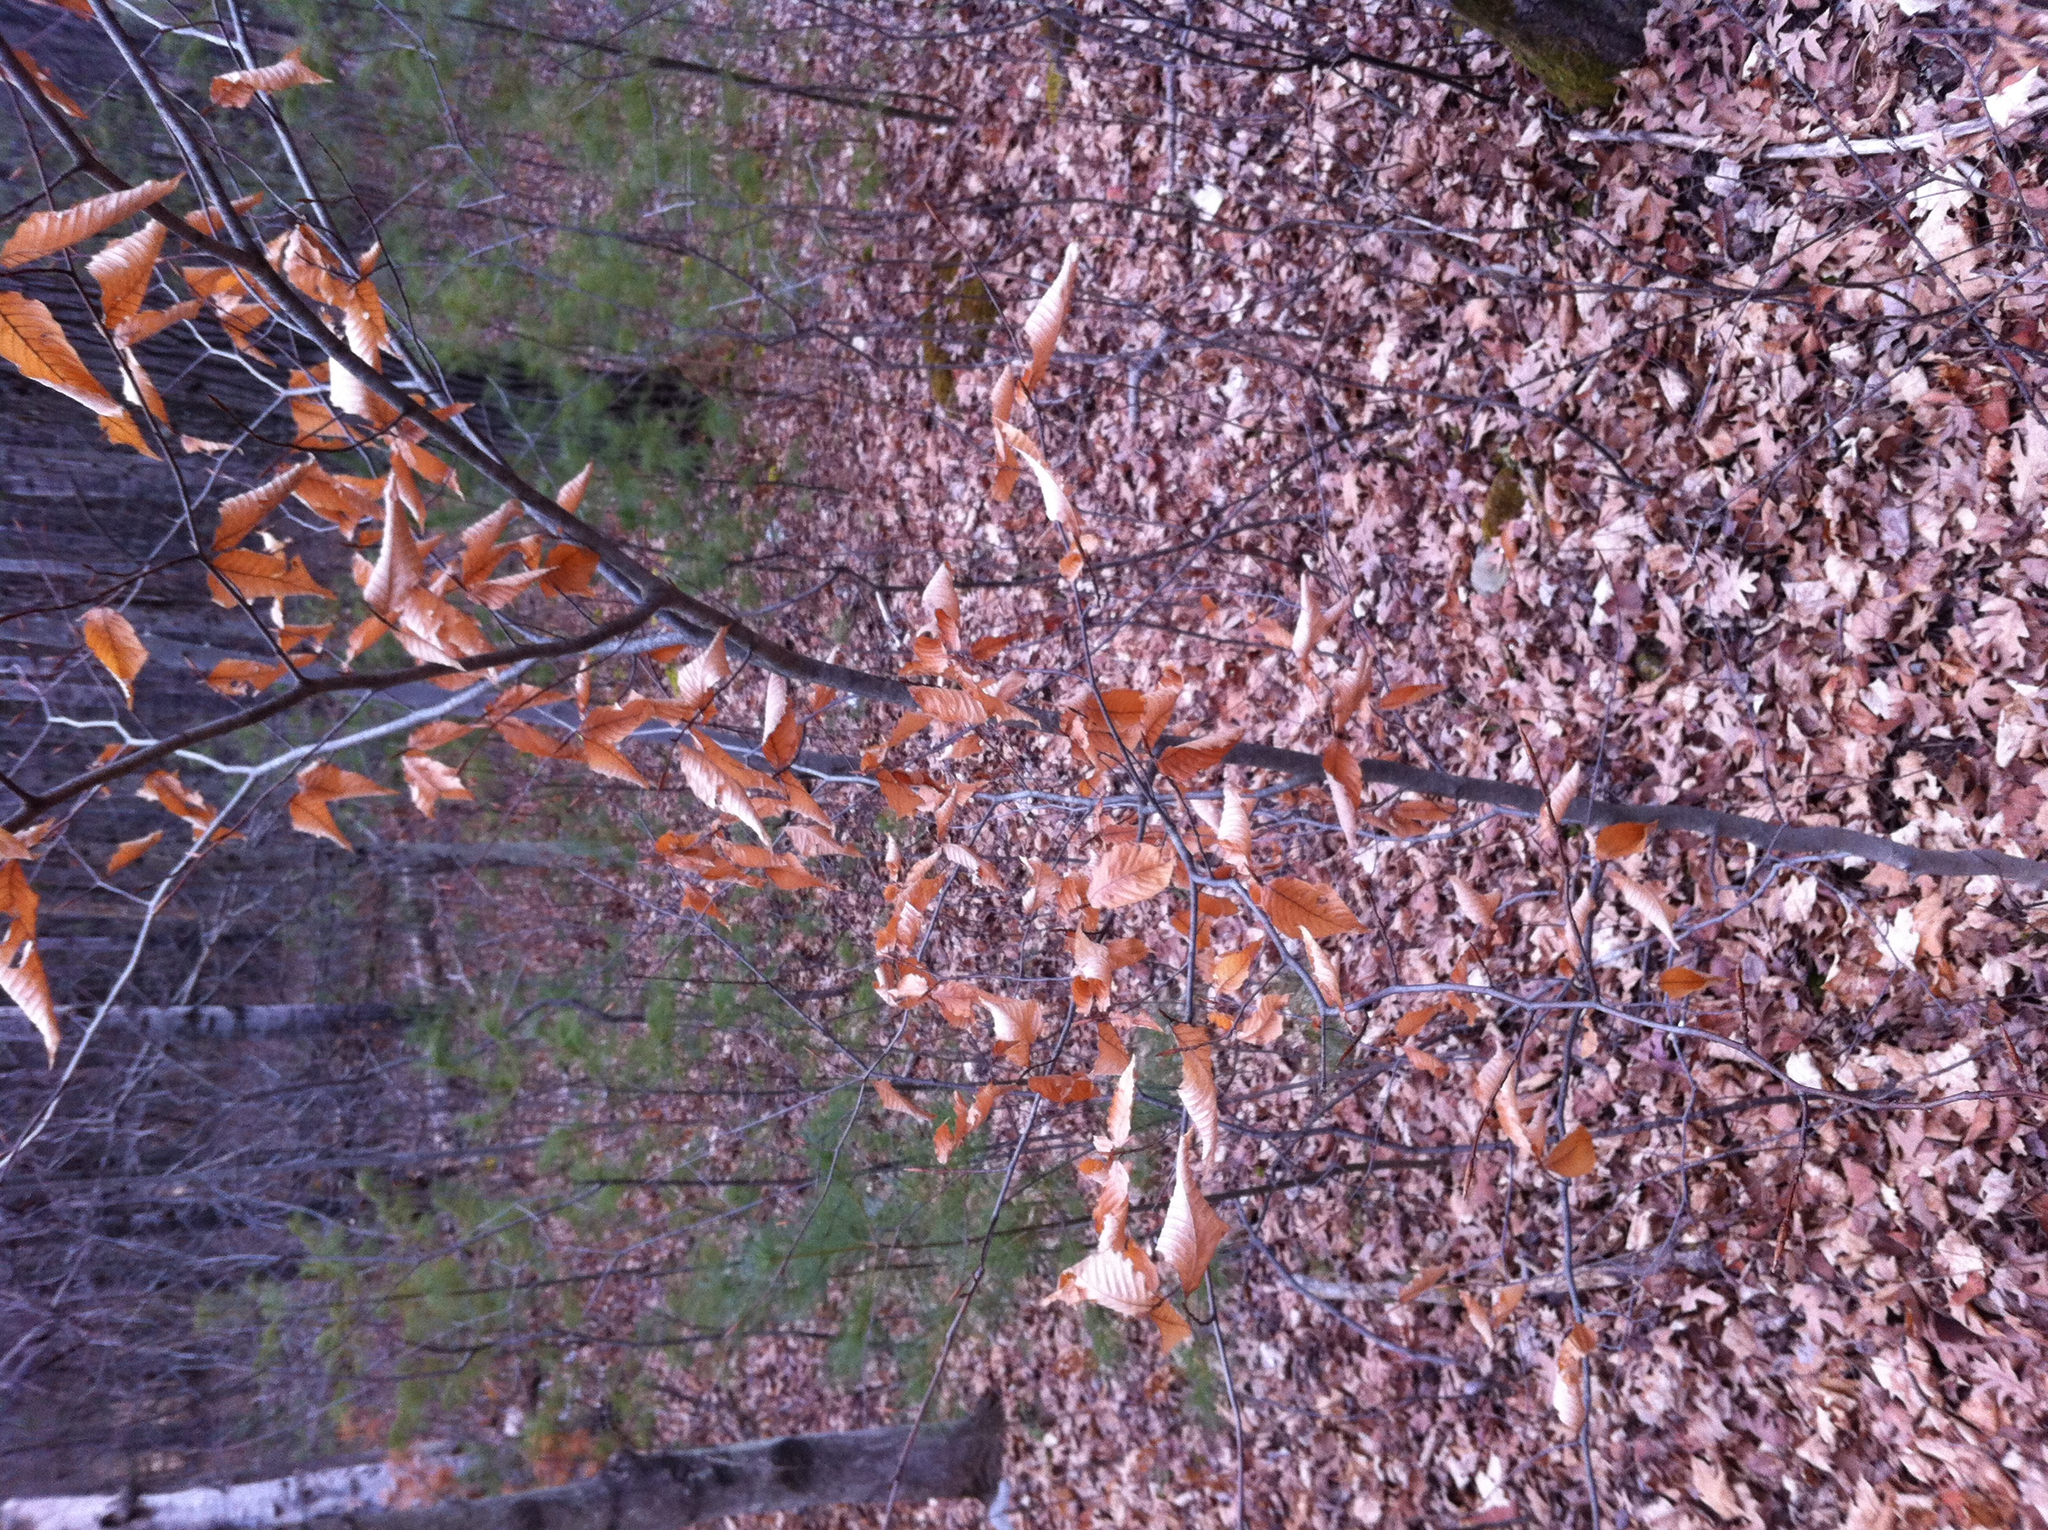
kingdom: Plantae
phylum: Tracheophyta
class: Magnoliopsida
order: Fagales
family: Fagaceae
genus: Fagus
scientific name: Fagus grandifolia
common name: American beech
